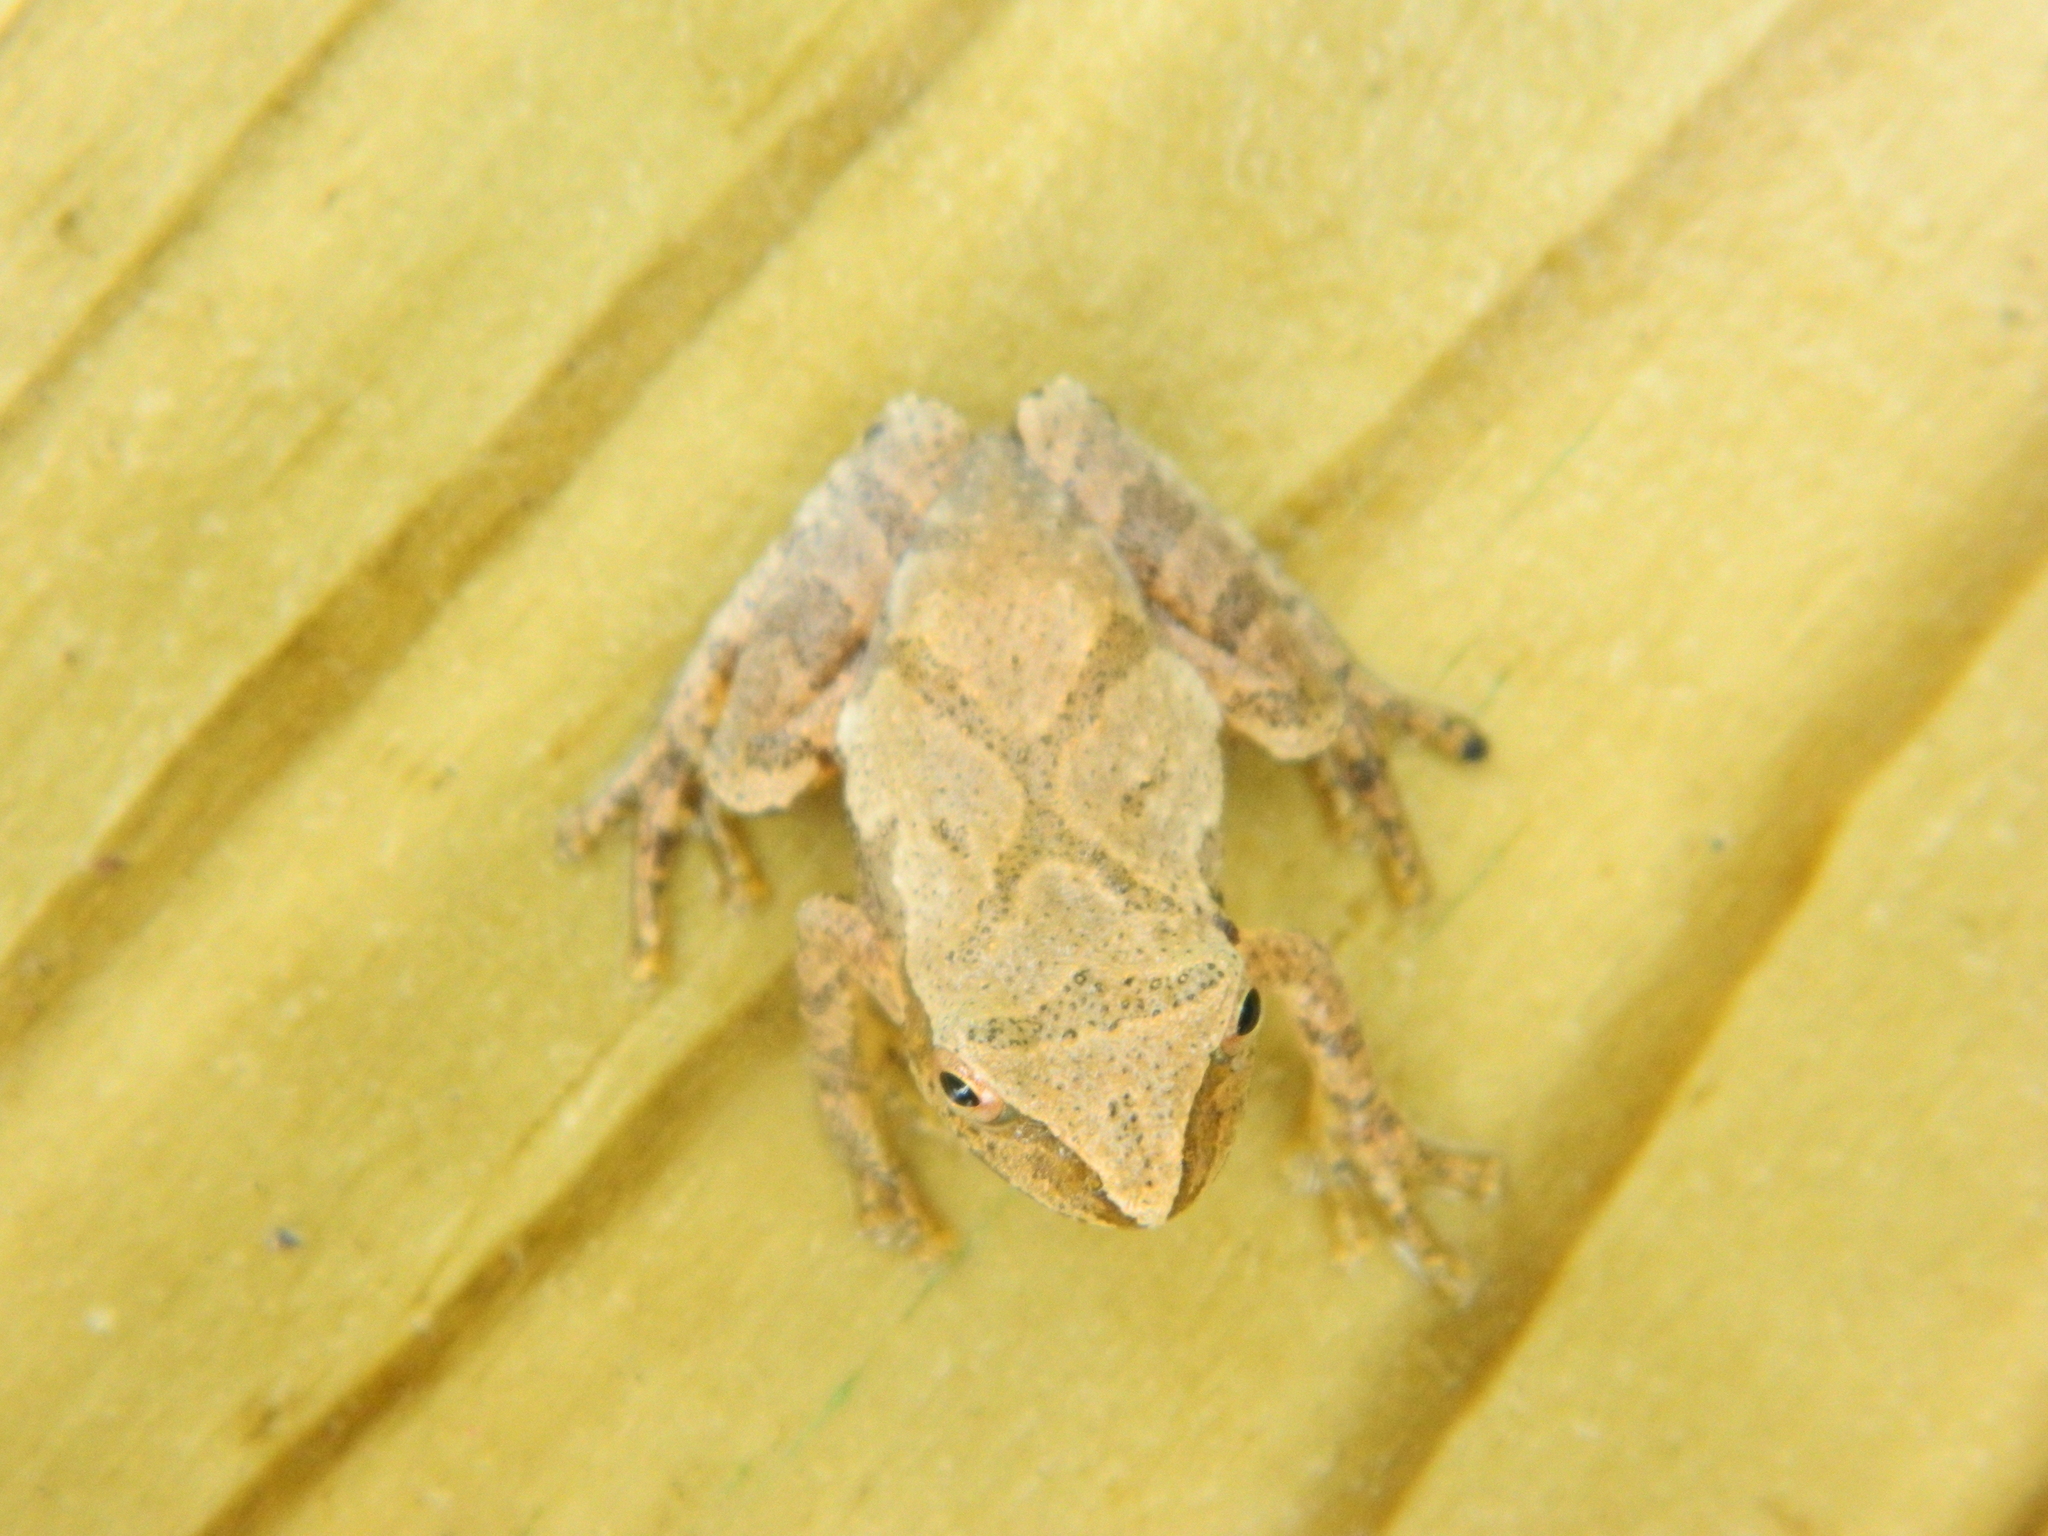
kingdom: Animalia
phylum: Chordata
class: Amphibia
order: Anura
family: Hylidae
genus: Pseudacris
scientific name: Pseudacris crucifer
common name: Spring peeper
